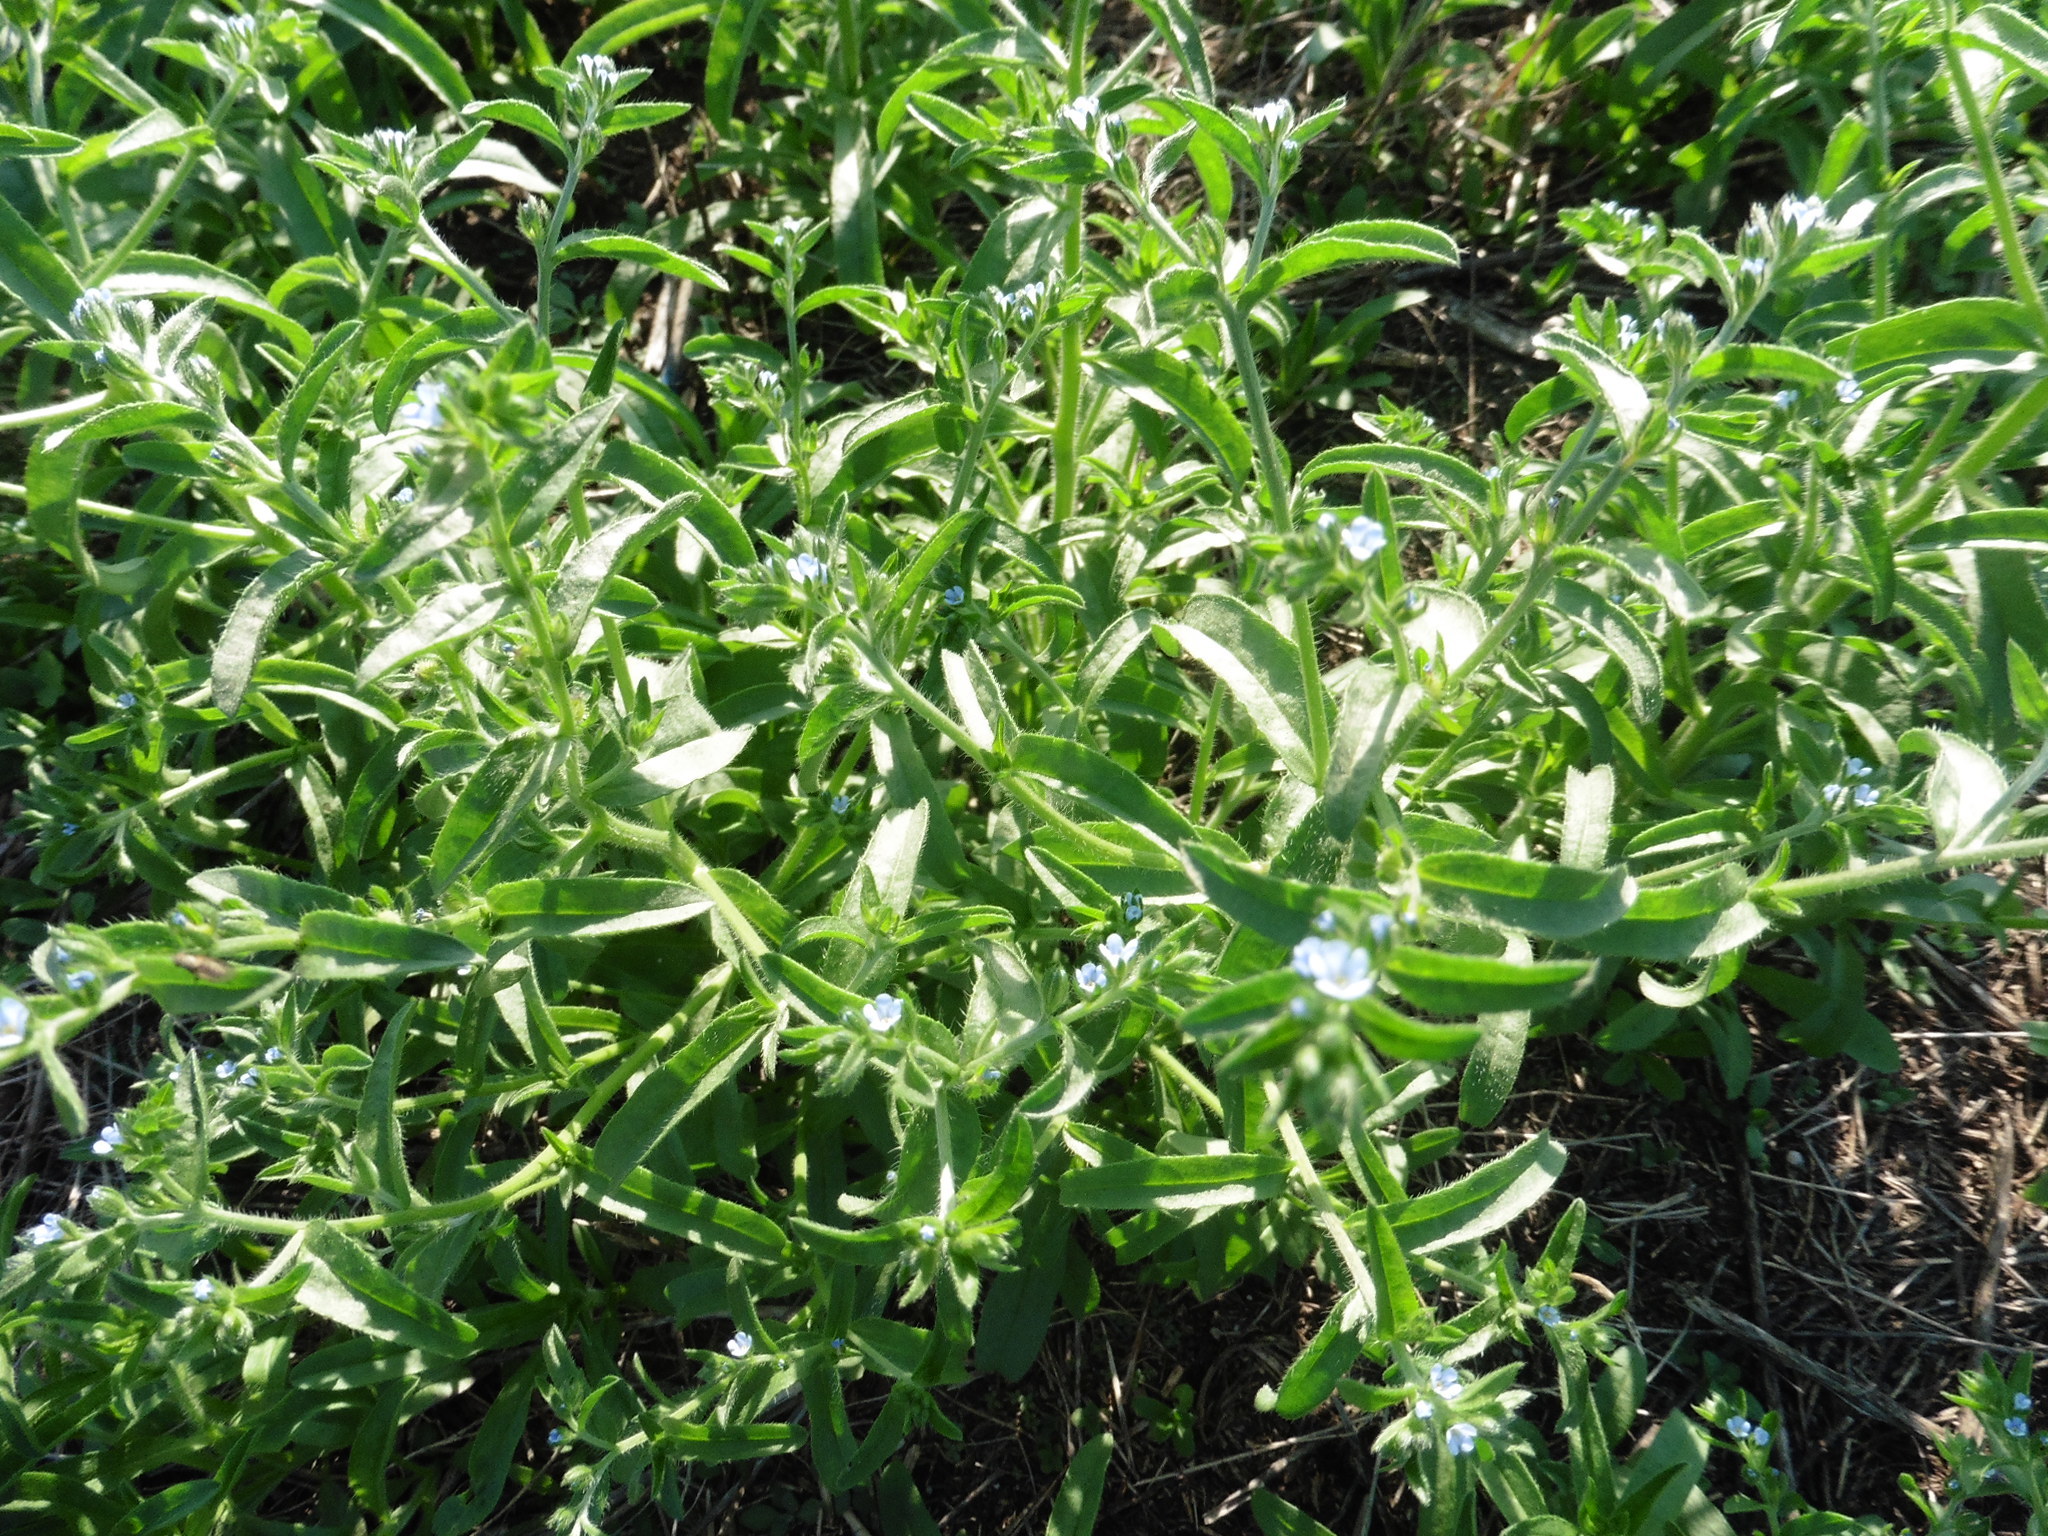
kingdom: Plantae
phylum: Tracheophyta
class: Magnoliopsida
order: Boraginales
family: Boraginaceae
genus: Lappula
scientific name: Lappula squarrosa
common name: European stickseed
